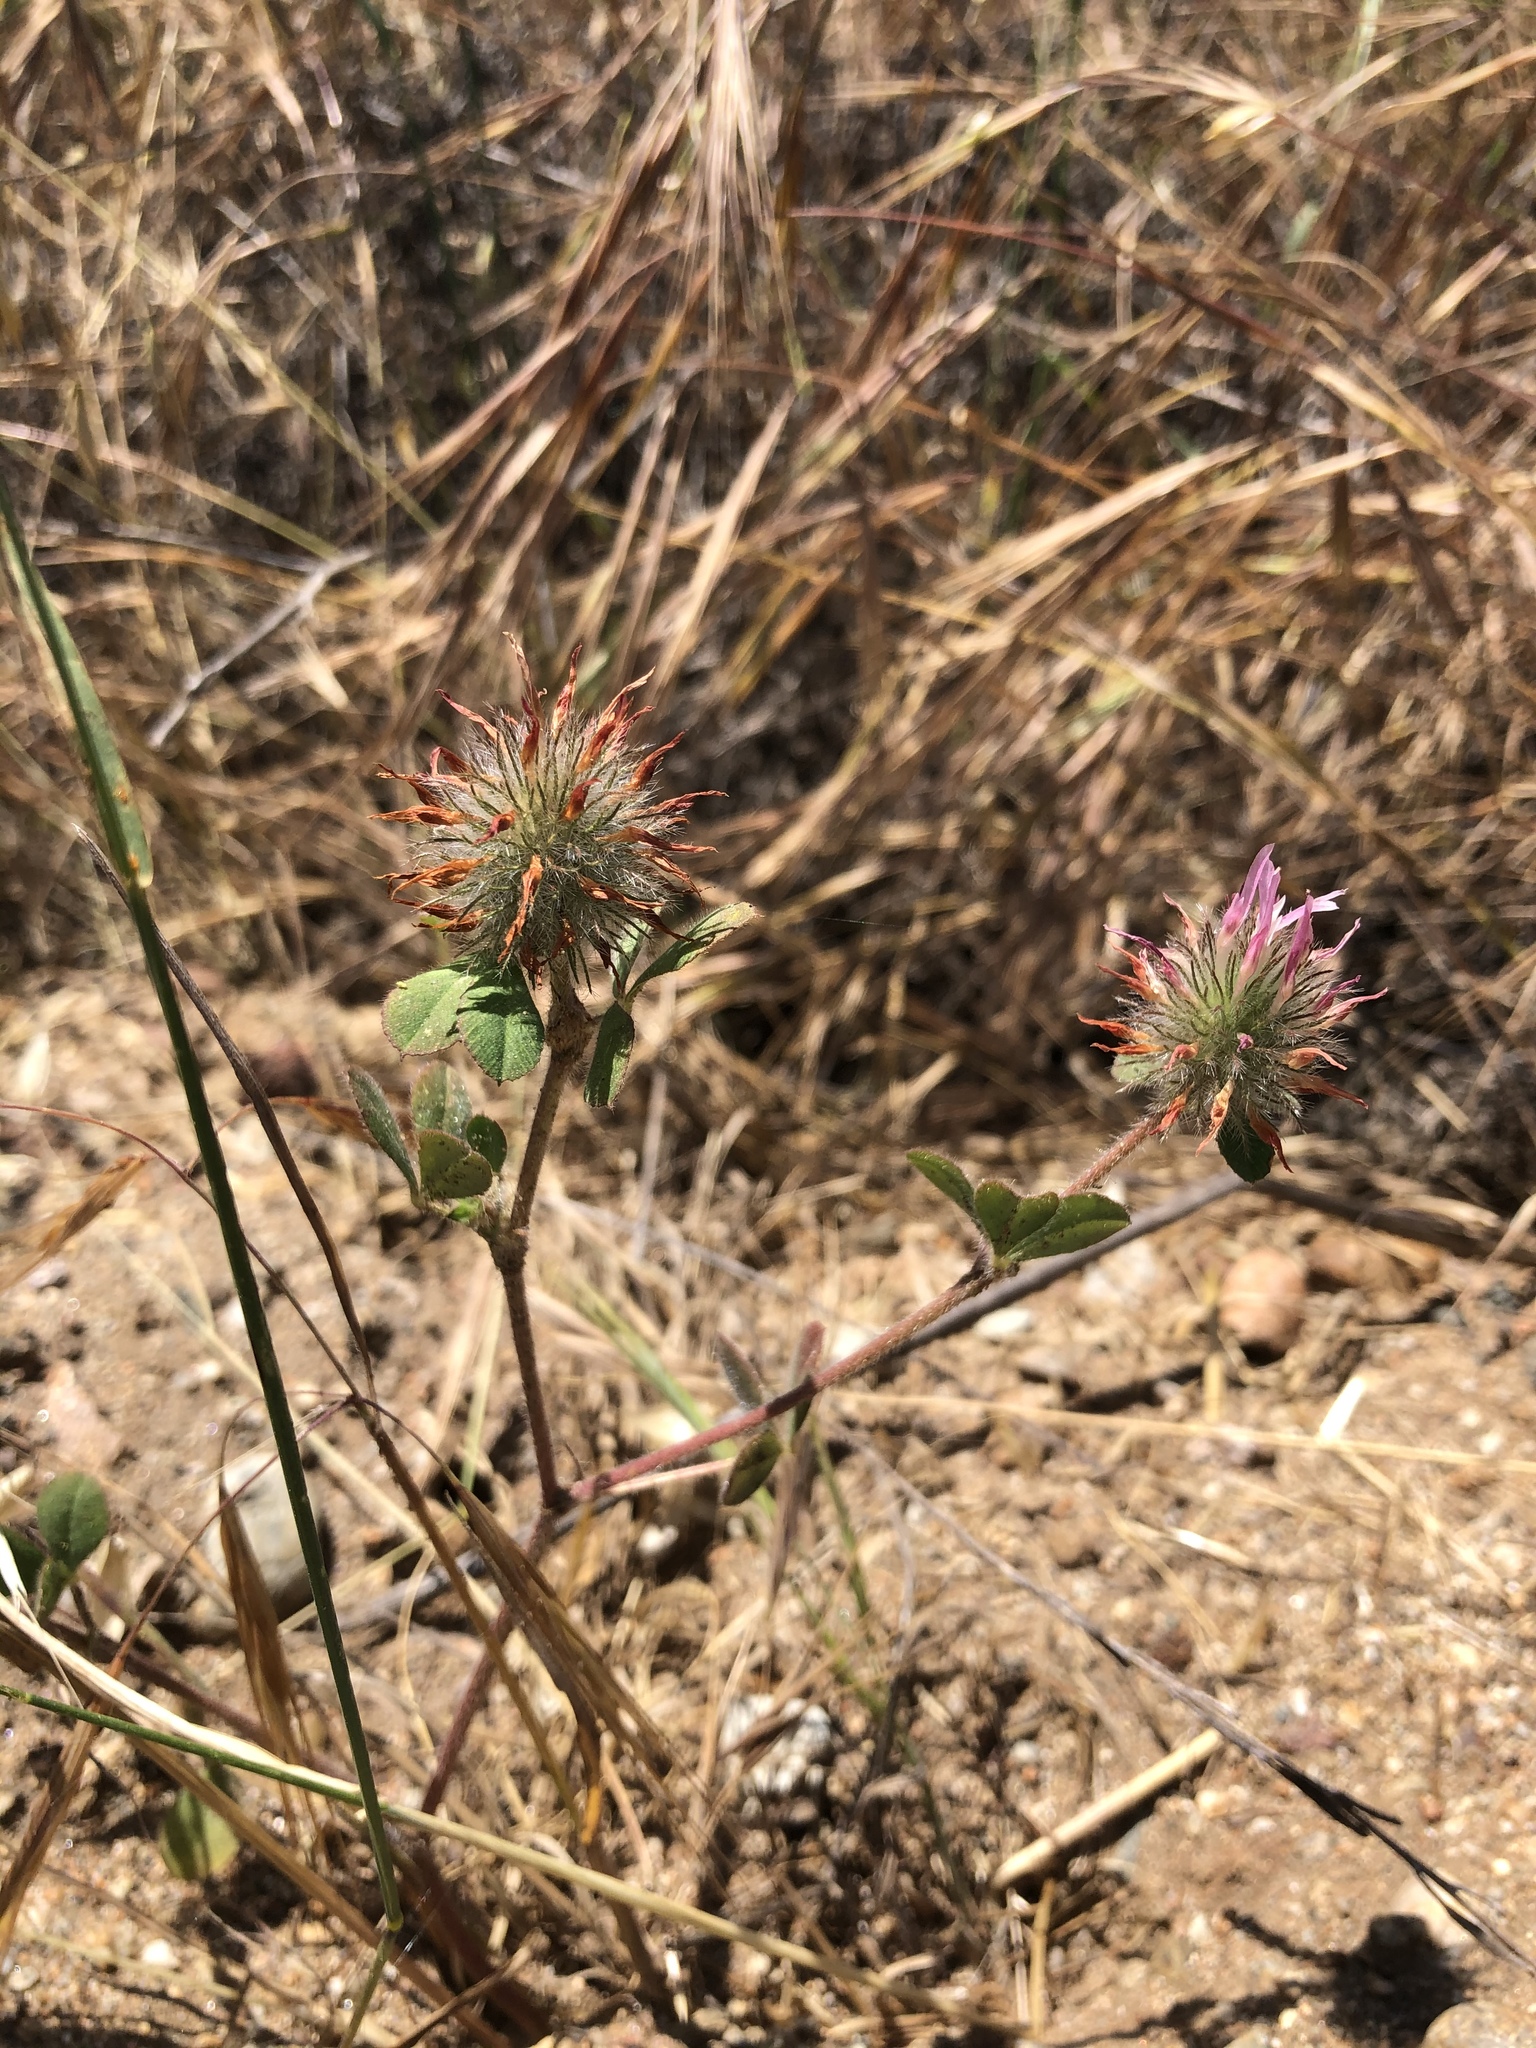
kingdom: Plantae
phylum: Tracheophyta
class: Magnoliopsida
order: Fabales
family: Fabaceae
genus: Trifolium
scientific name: Trifolium hirtum
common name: Rose clover
